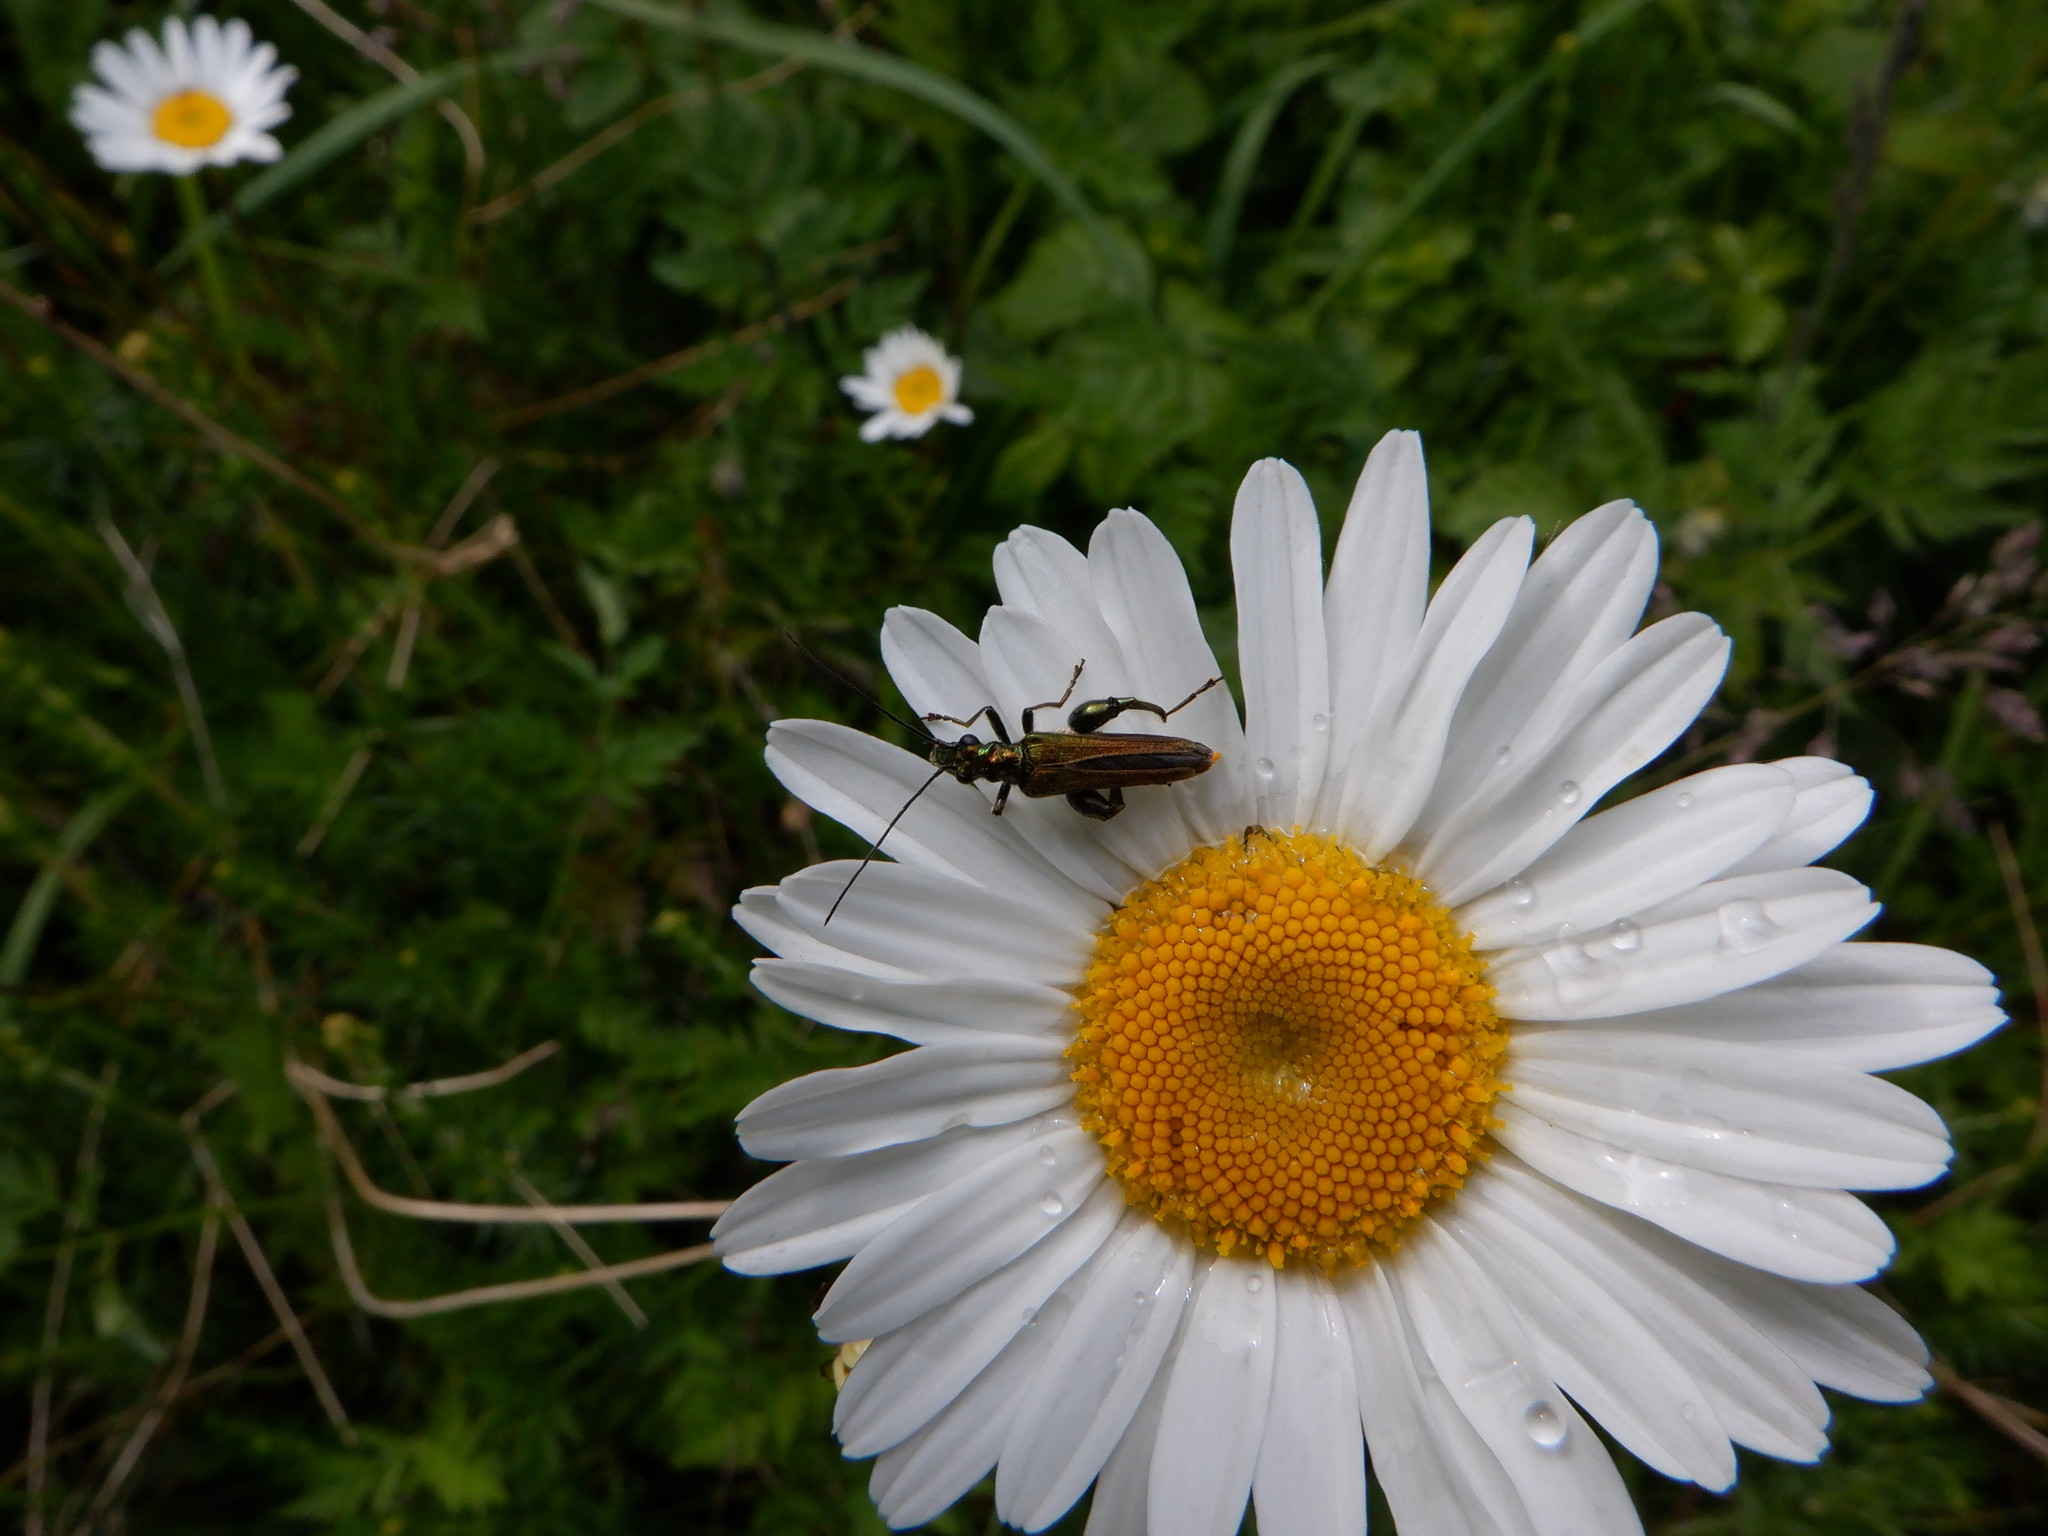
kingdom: Plantae
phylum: Tracheophyta
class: Magnoliopsida
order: Asterales
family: Asteraceae
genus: Leucanthemum
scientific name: Leucanthemum vulgare
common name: Oxeye daisy
